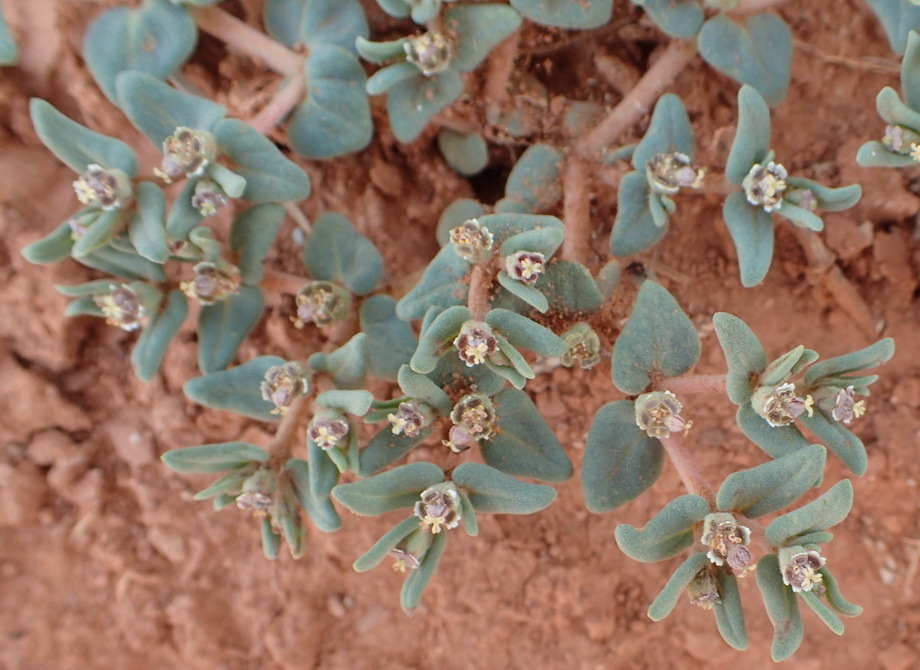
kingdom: Plantae
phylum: Tracheophyta
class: Magnoliopsida
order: Malpighiales
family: Euphorbiaceae
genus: Euphorbia
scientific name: Euphorbia lata
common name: Hoary euphorbia
